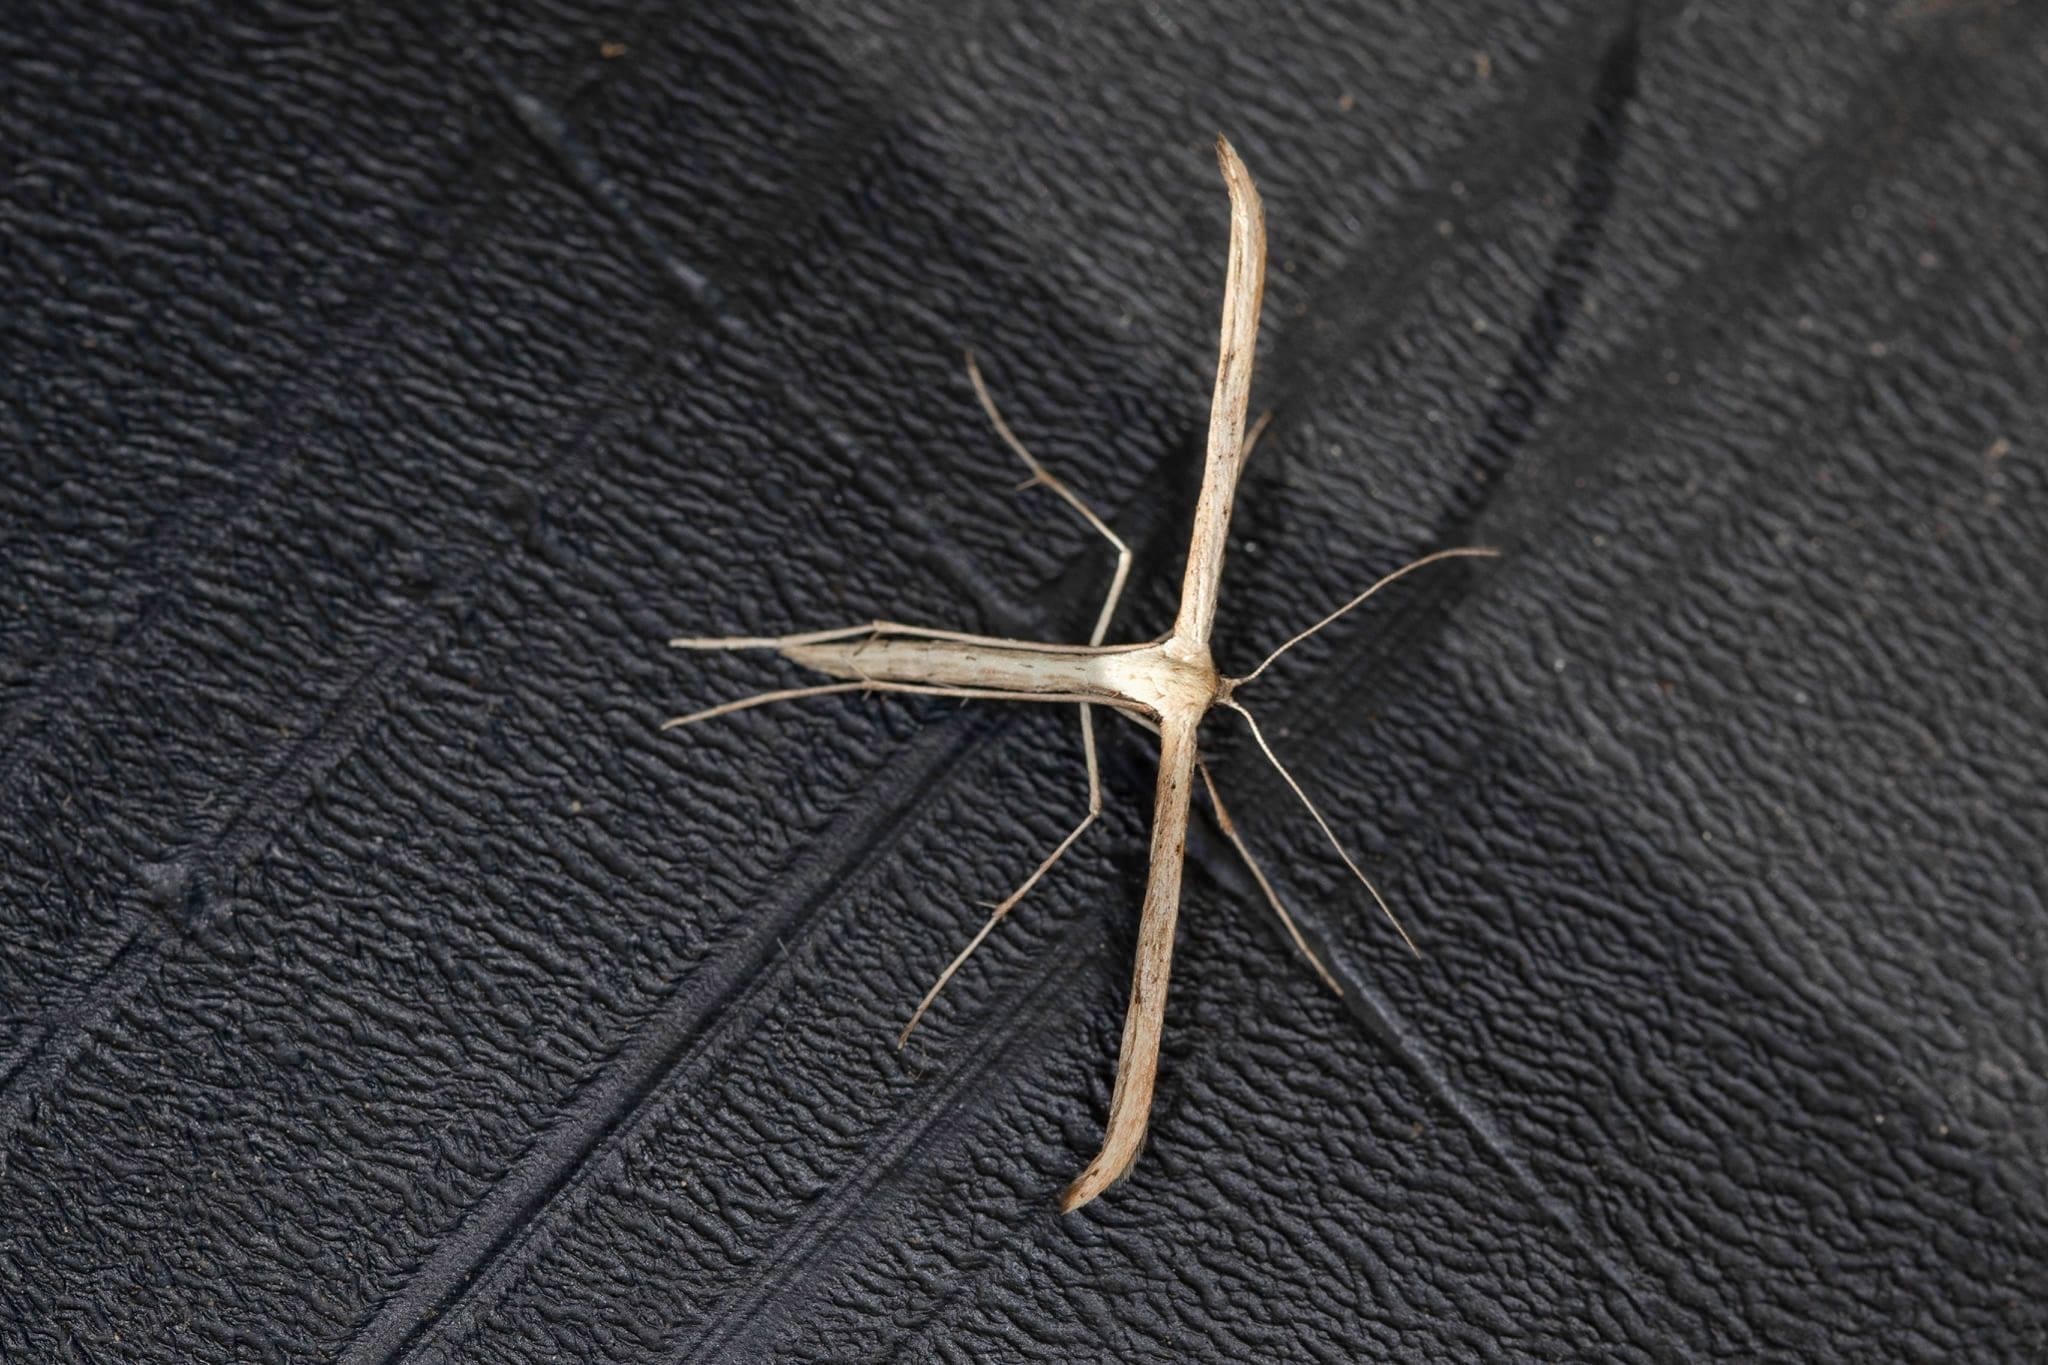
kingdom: Animalia
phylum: Arthropoda
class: Insecta
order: Lepidoptera
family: Pterophoridae
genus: Emmelina
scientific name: Emmelina monodactyla
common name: Common plume
